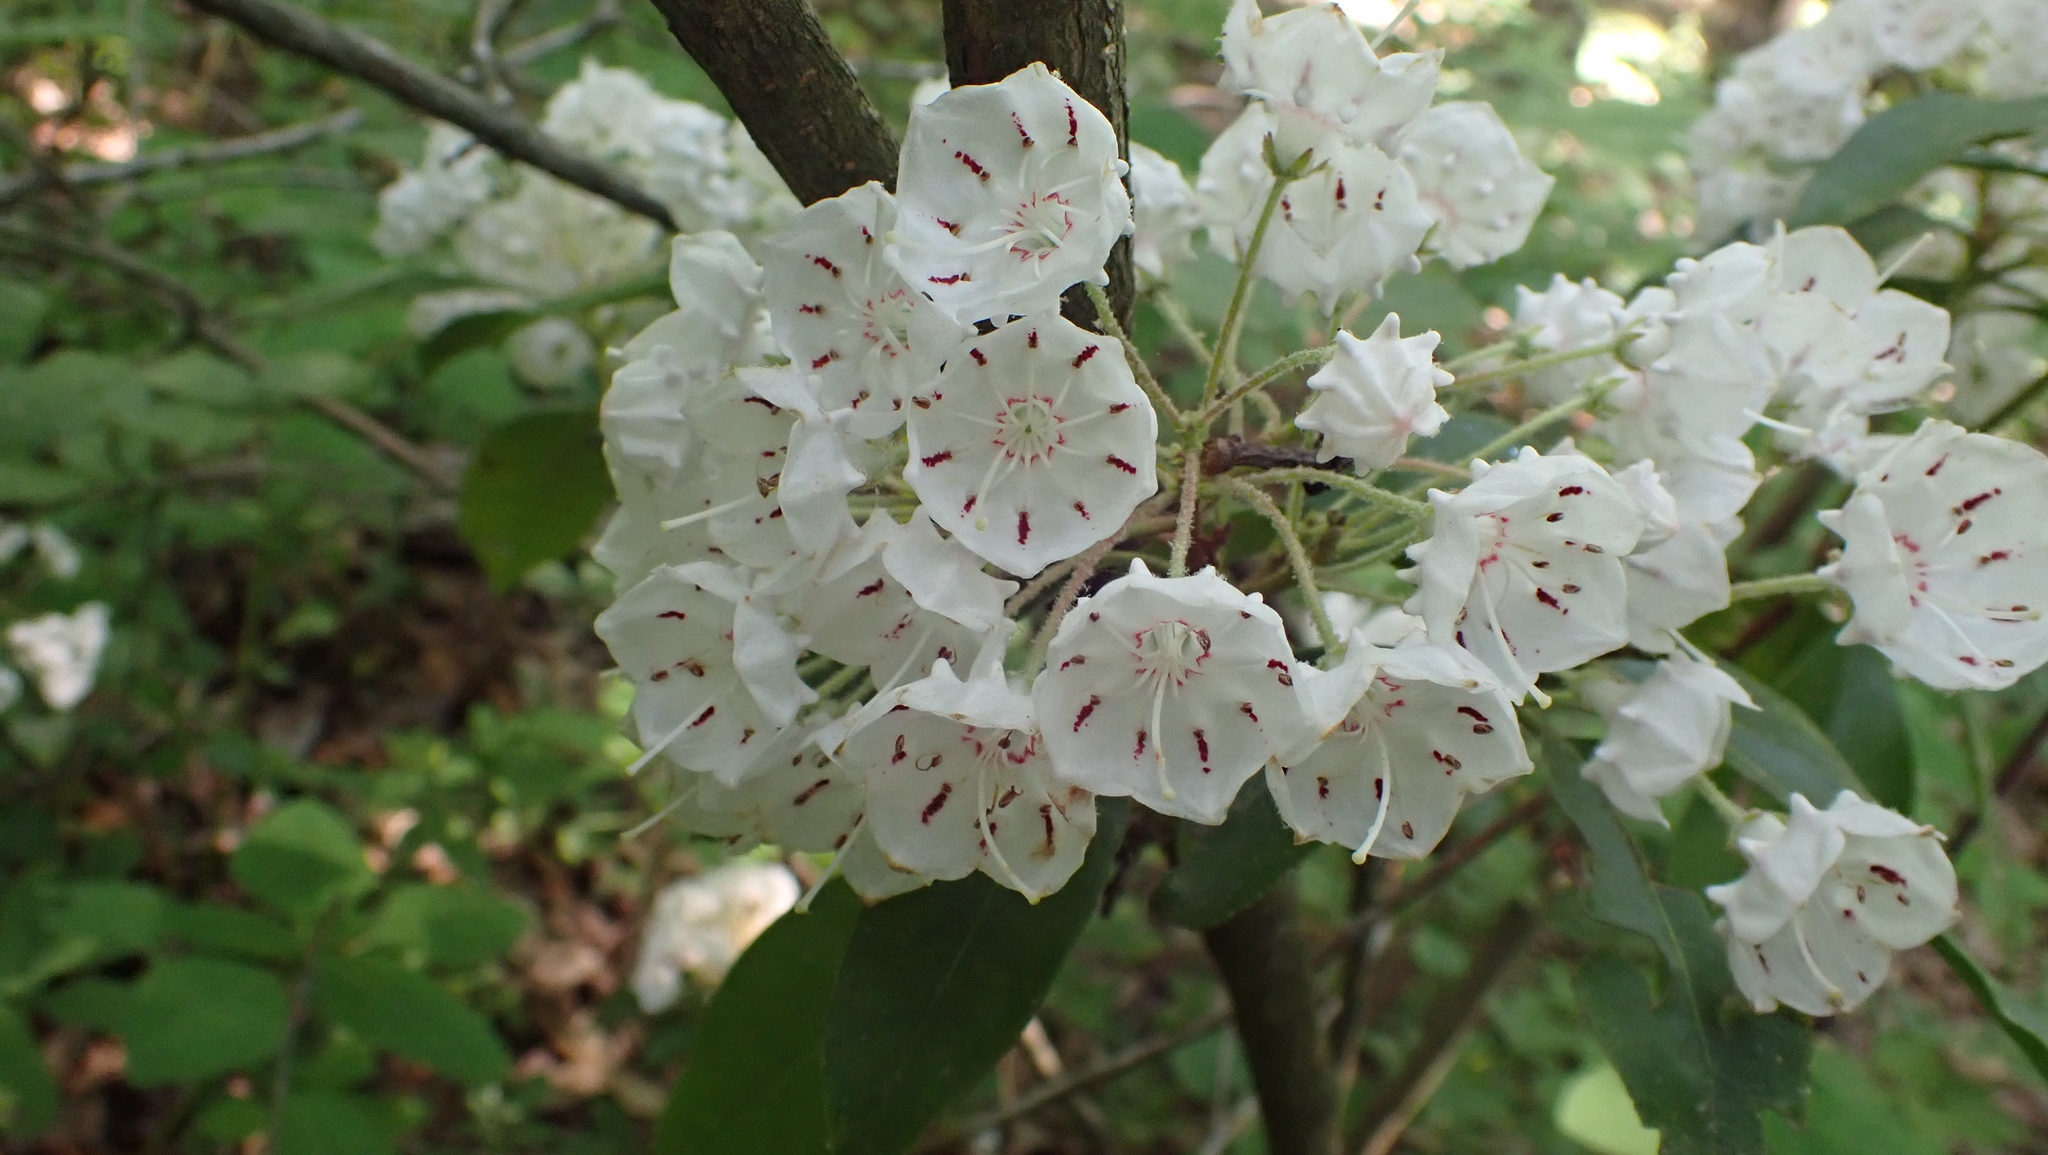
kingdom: Plantae
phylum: Tracheophyta
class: Magnoliopsida
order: Ericales
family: Ericaceae
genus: Kalmia
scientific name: Kalmia latifolia
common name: Mountain-laurel
